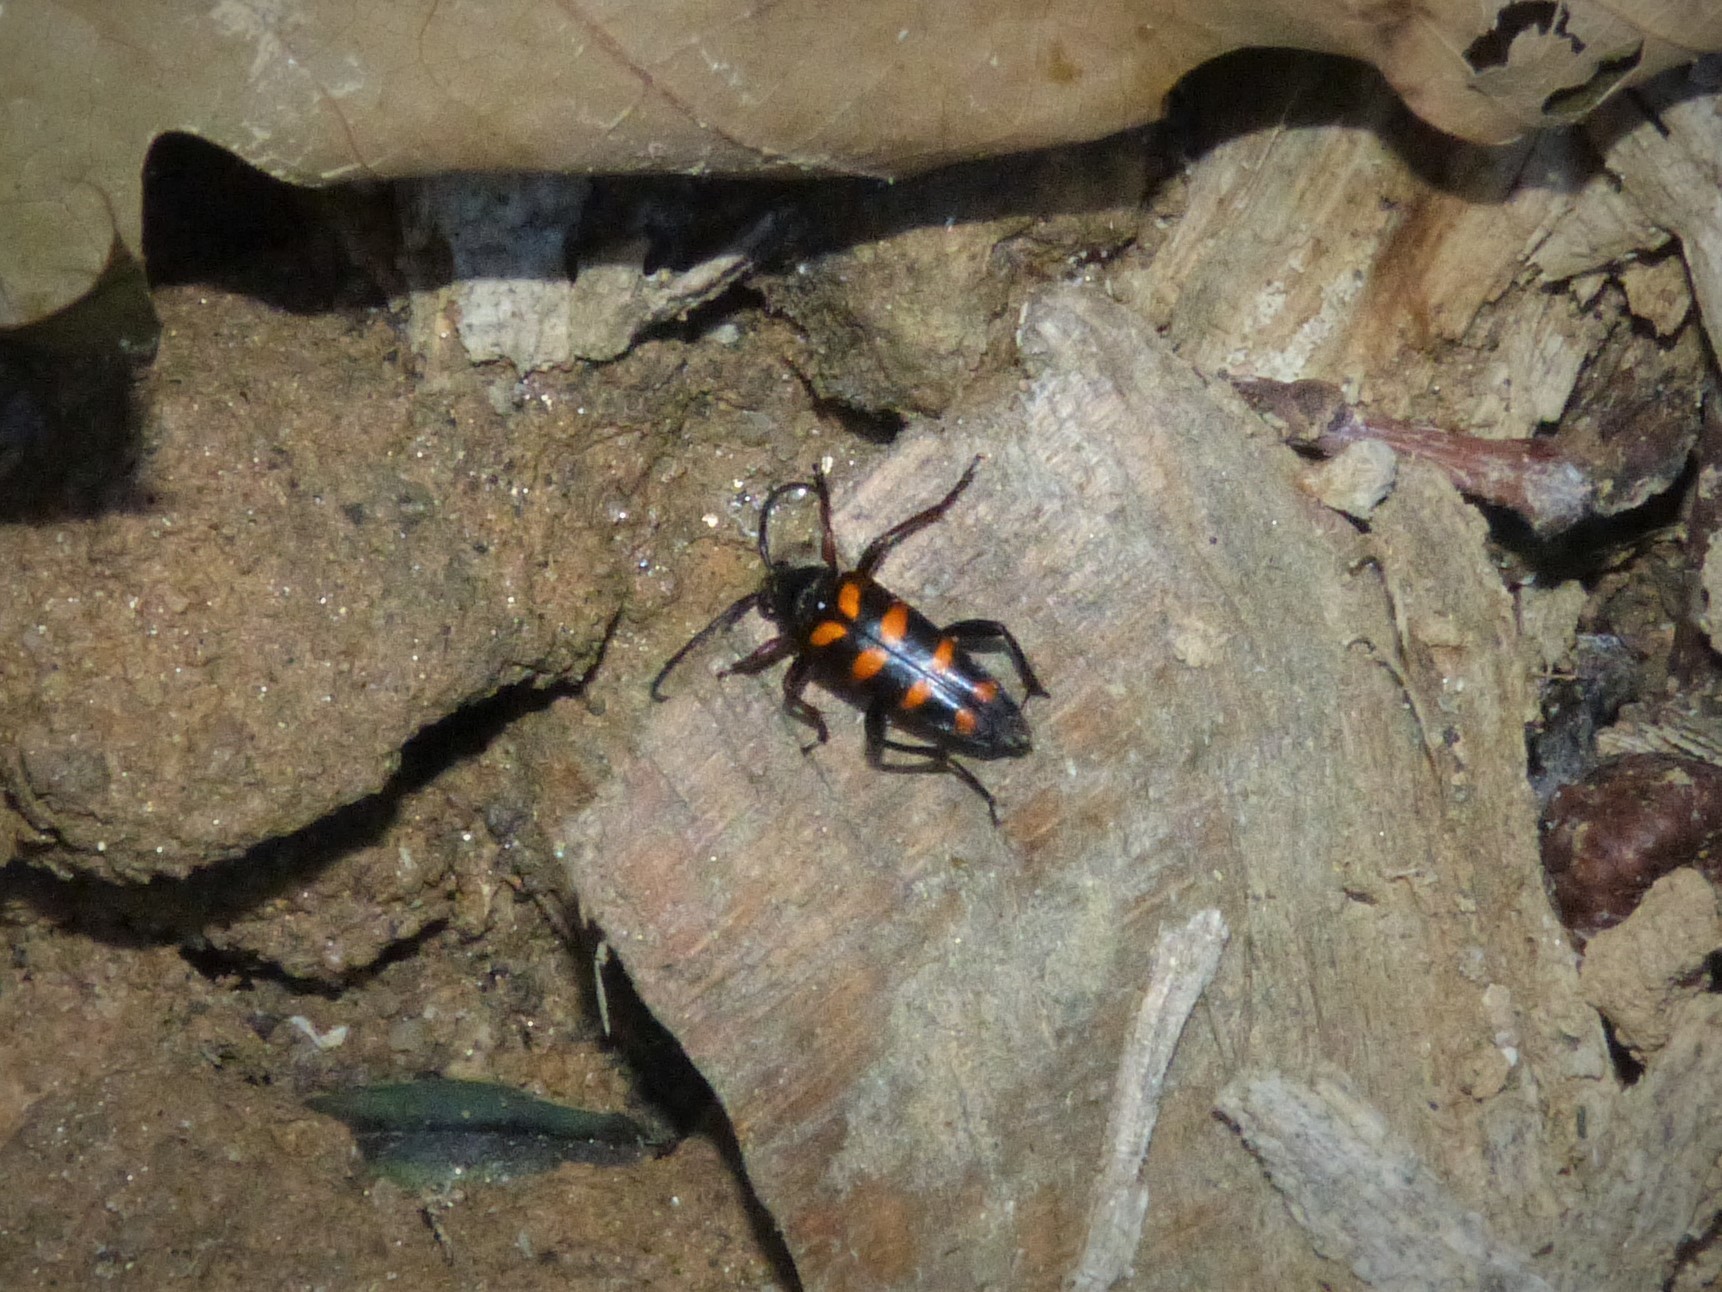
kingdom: Animalia
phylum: Arthropoda
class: Insecta
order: Coleoptera
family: Cerambycidae
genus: Leptura
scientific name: Leptura aurulenta
